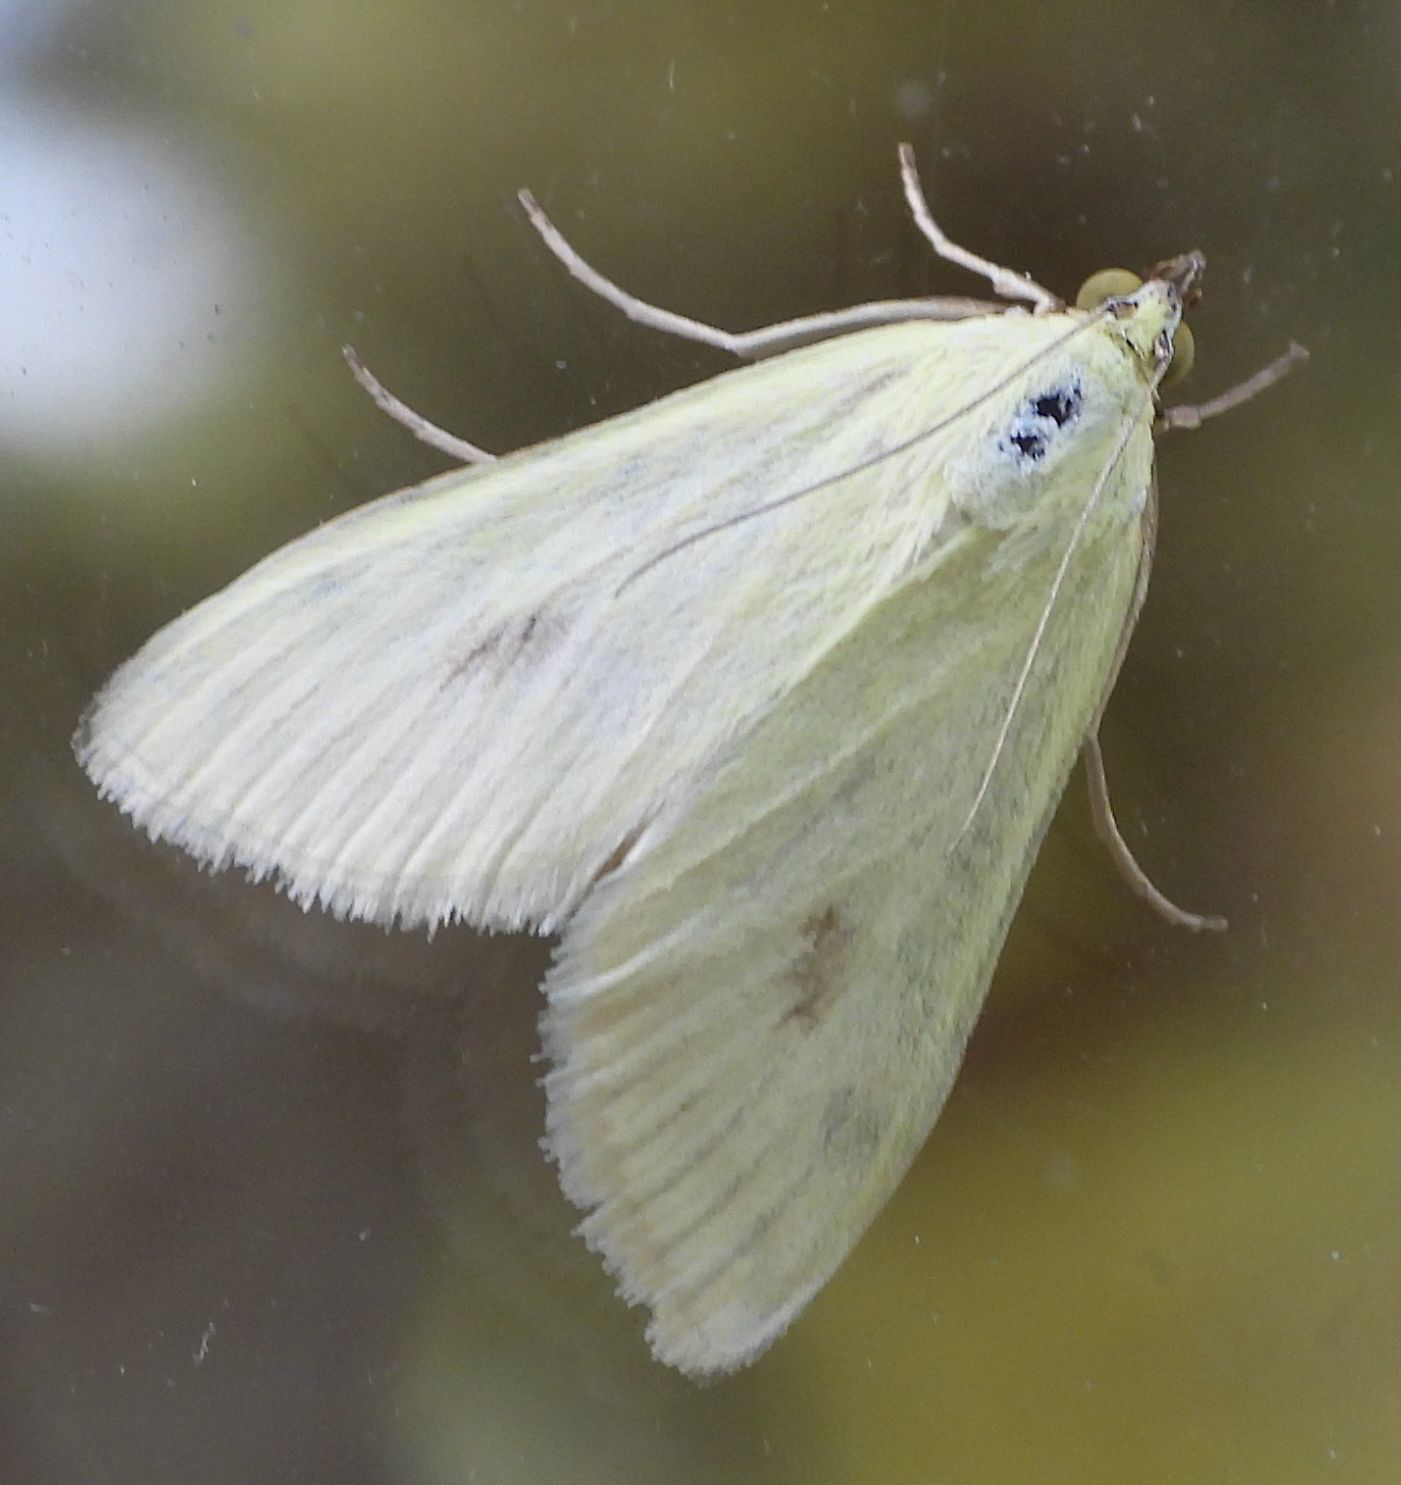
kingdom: Animalia
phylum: Arthropoda
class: Insecta
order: Lepidoptera
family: Crambidae
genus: Sitochroa
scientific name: Sitochroa palealis
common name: Greenish-yellow sitochroa moth
